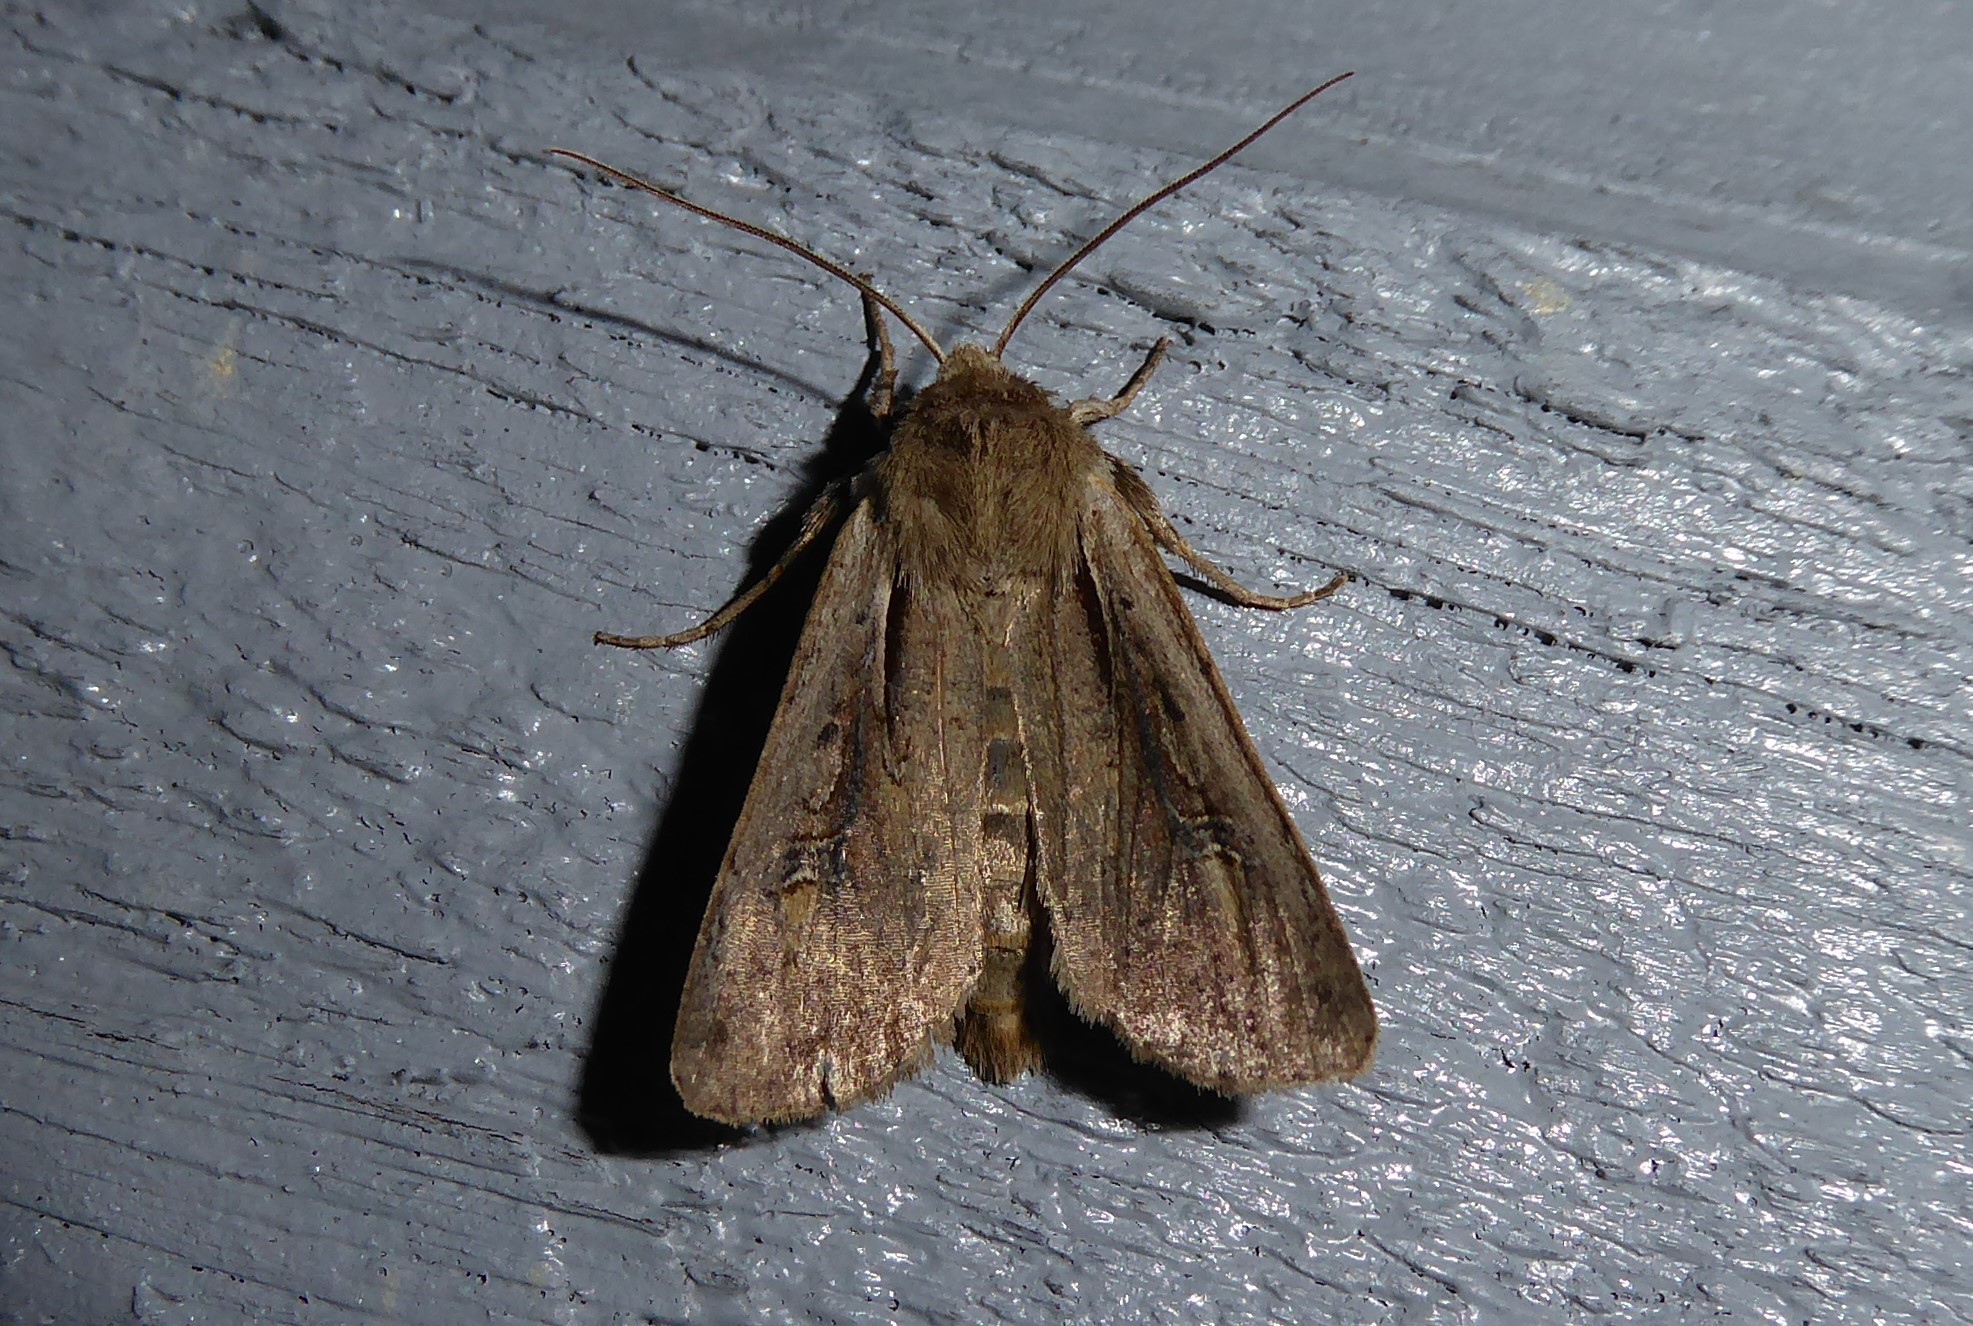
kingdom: Animalia
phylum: Arthropoda
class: Insecta
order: Lepidoptera
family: Noctuidae
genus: Ichneutica
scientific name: Ichneutica atristriga
